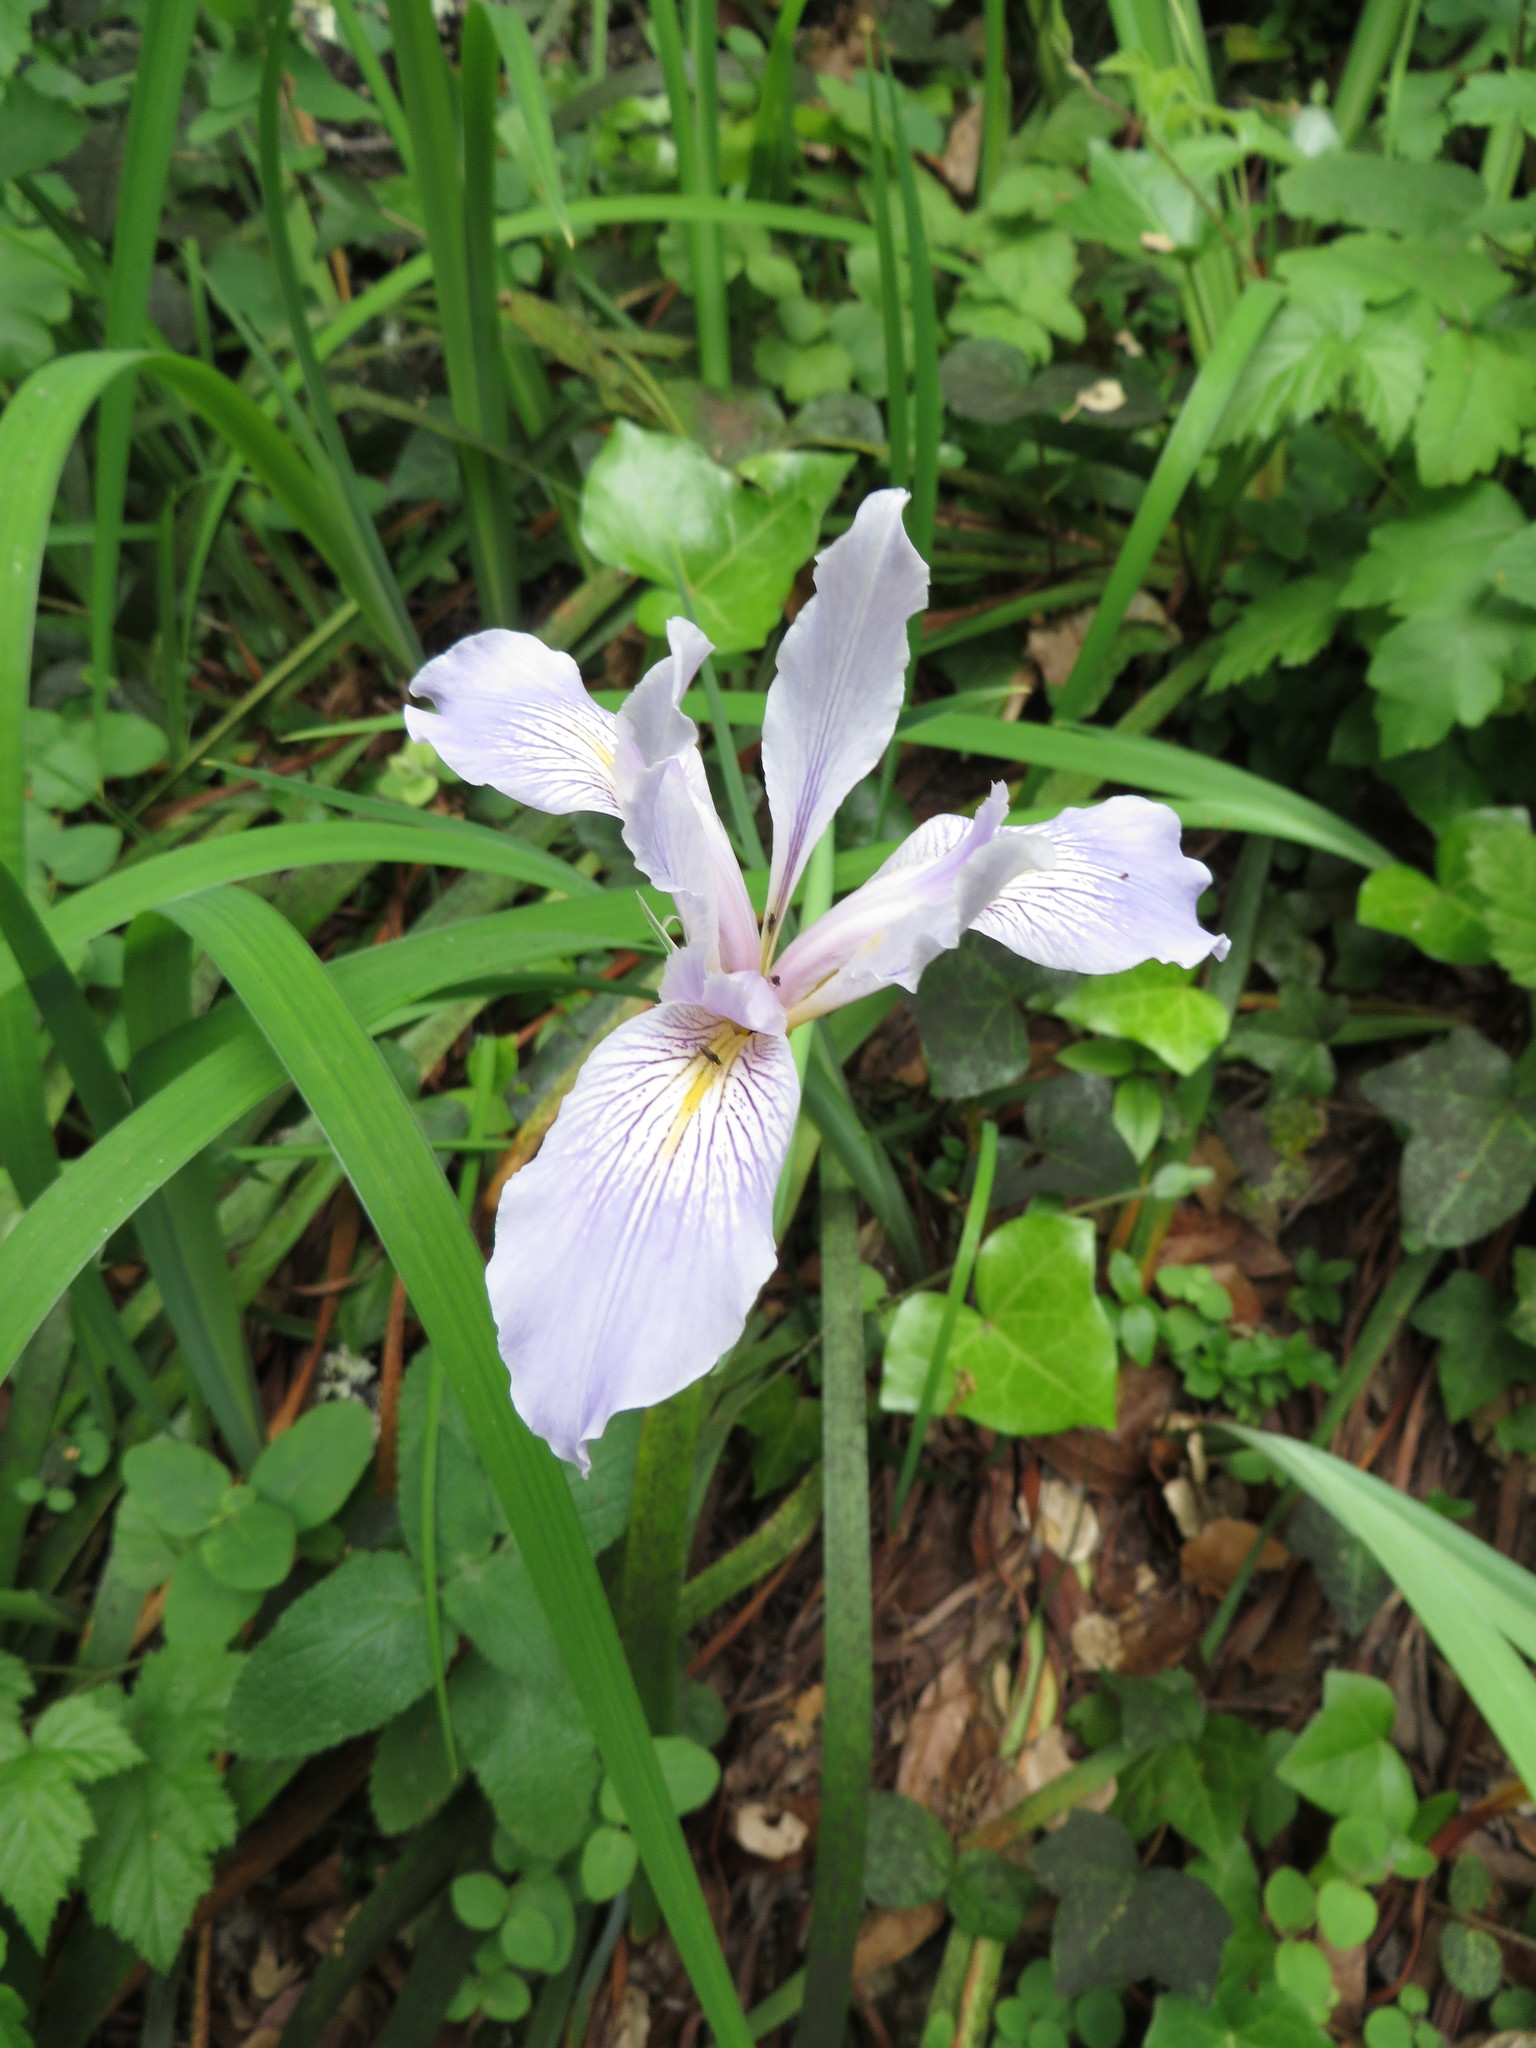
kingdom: Plantae
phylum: Tracheophyta
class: Liliopsida
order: Asparagales
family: Iridaceae
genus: Iris
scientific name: Iris douglasiana
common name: Marin iris
